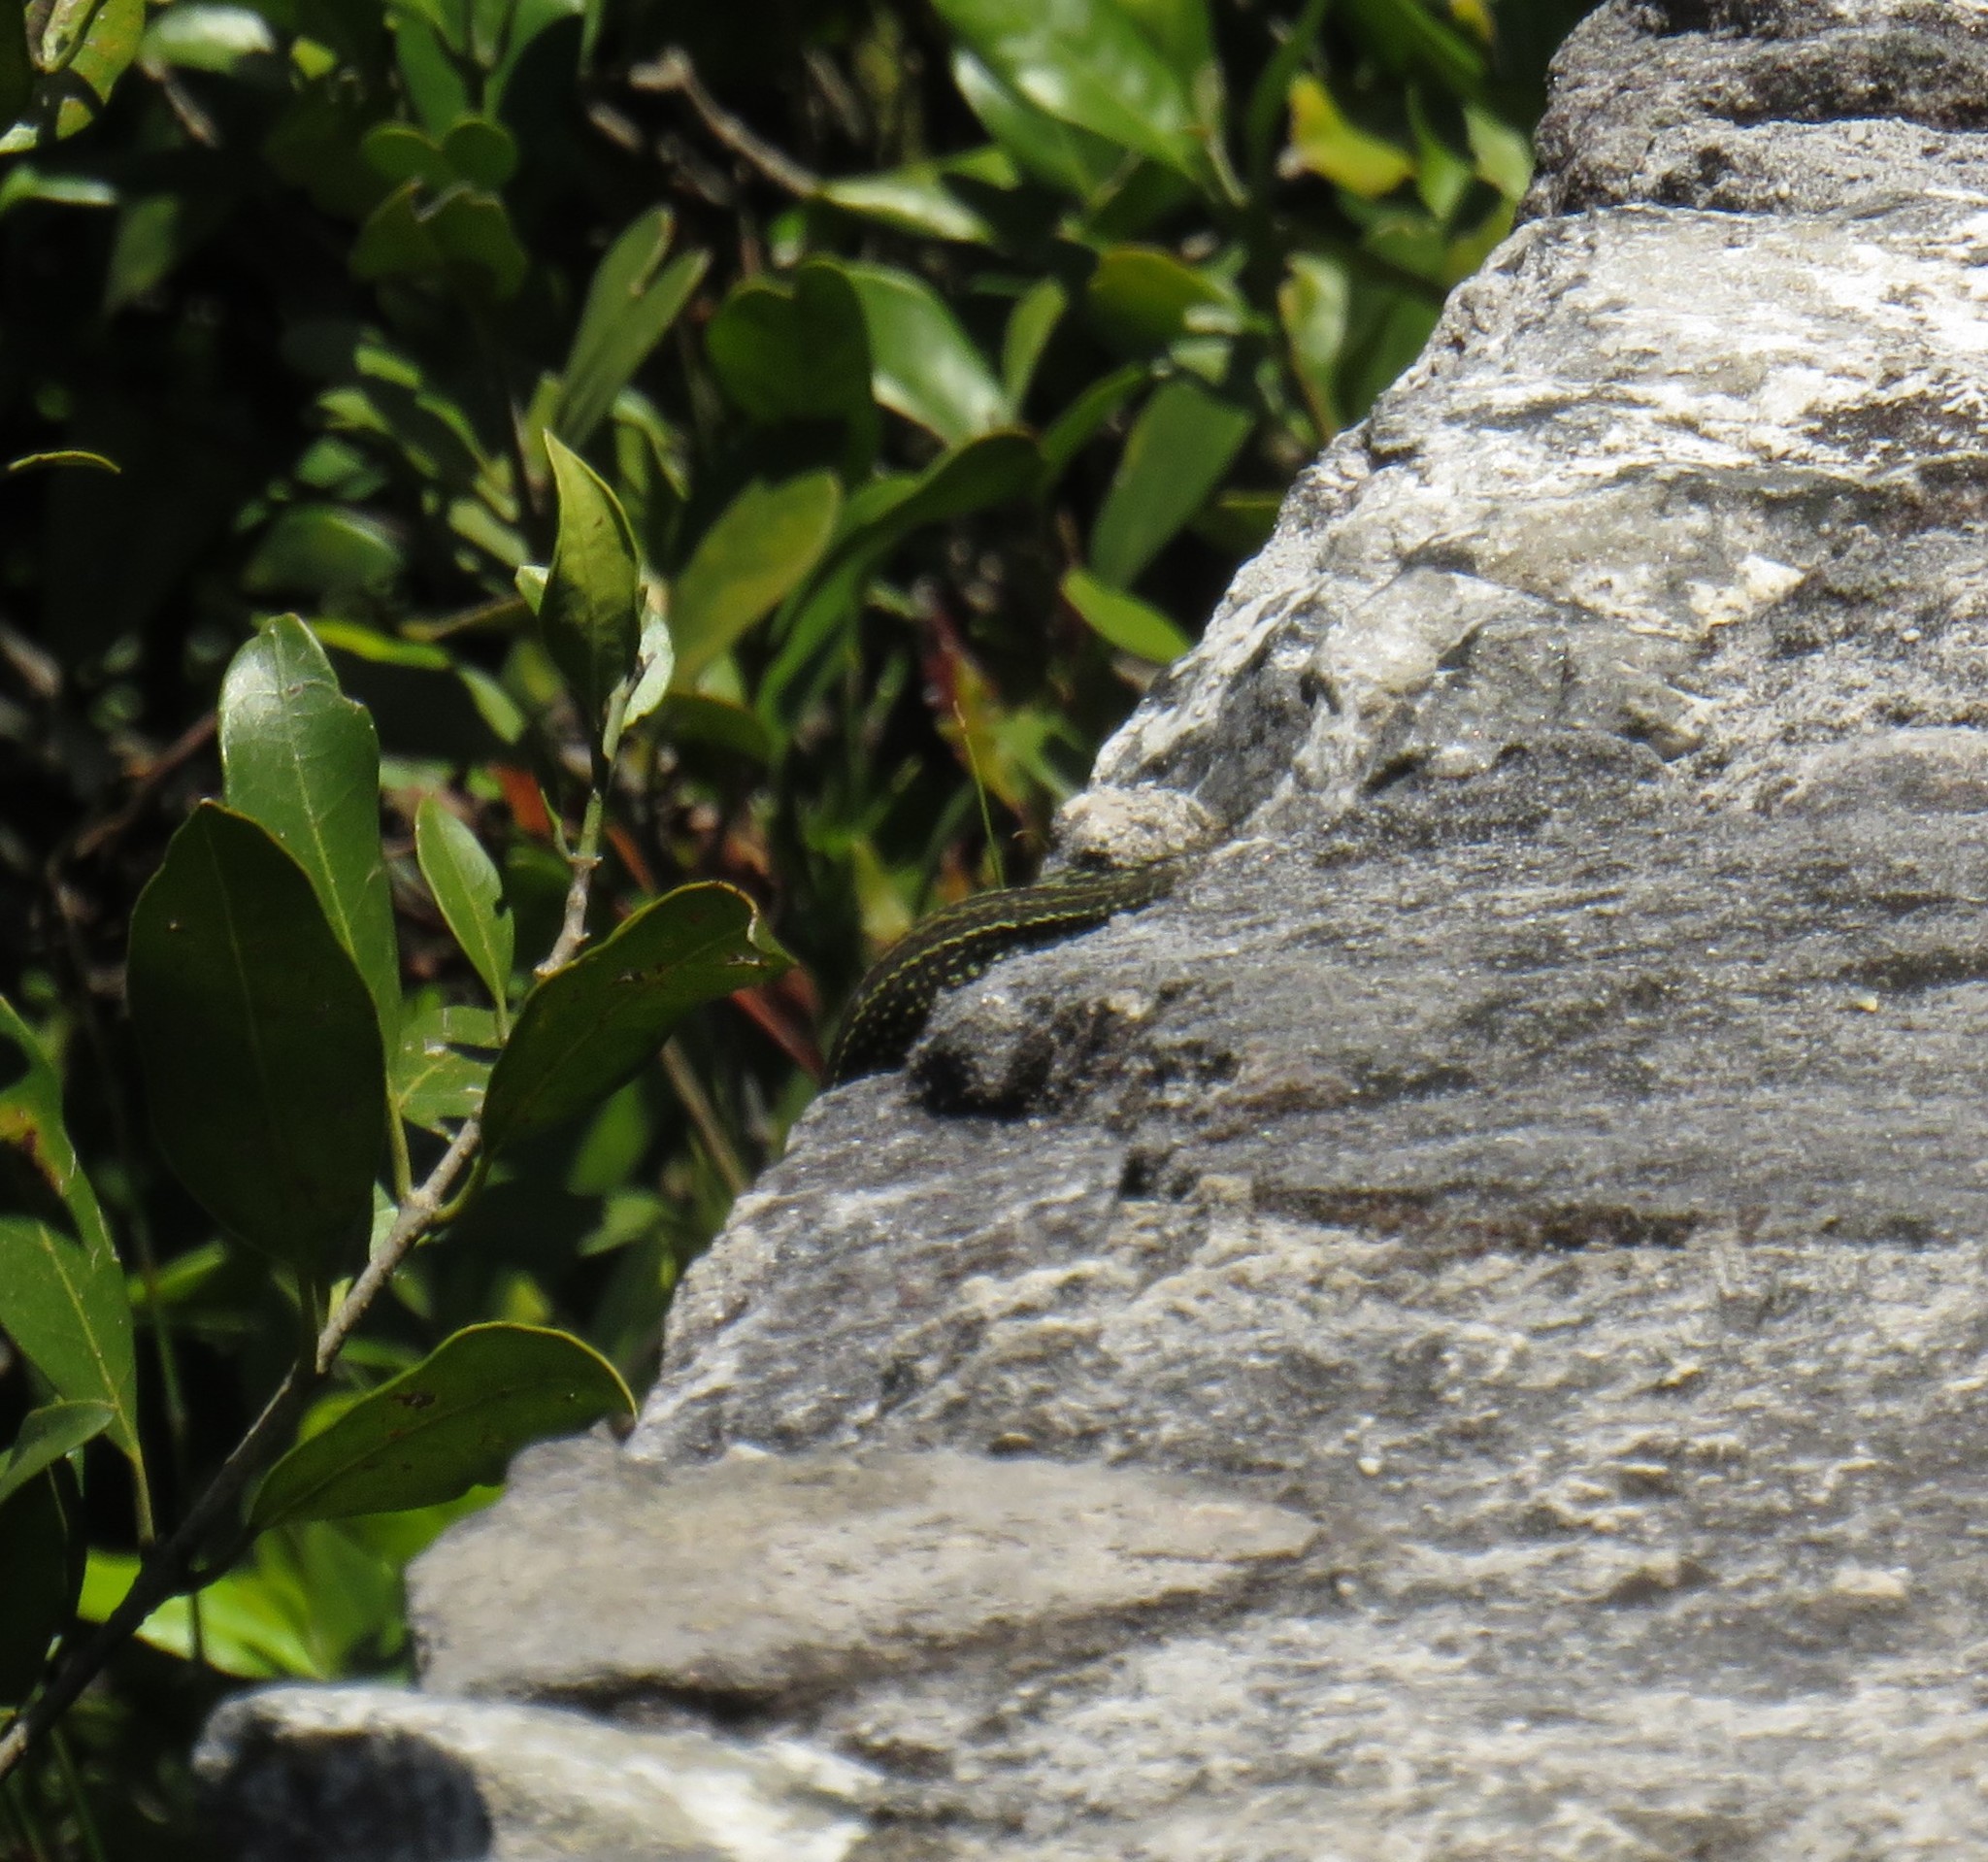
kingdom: Animalia
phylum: Chordata
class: Squamata
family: Lacertidae
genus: Tropidosaura
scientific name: Tropidosaura gularis
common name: Cape mountain lizard
